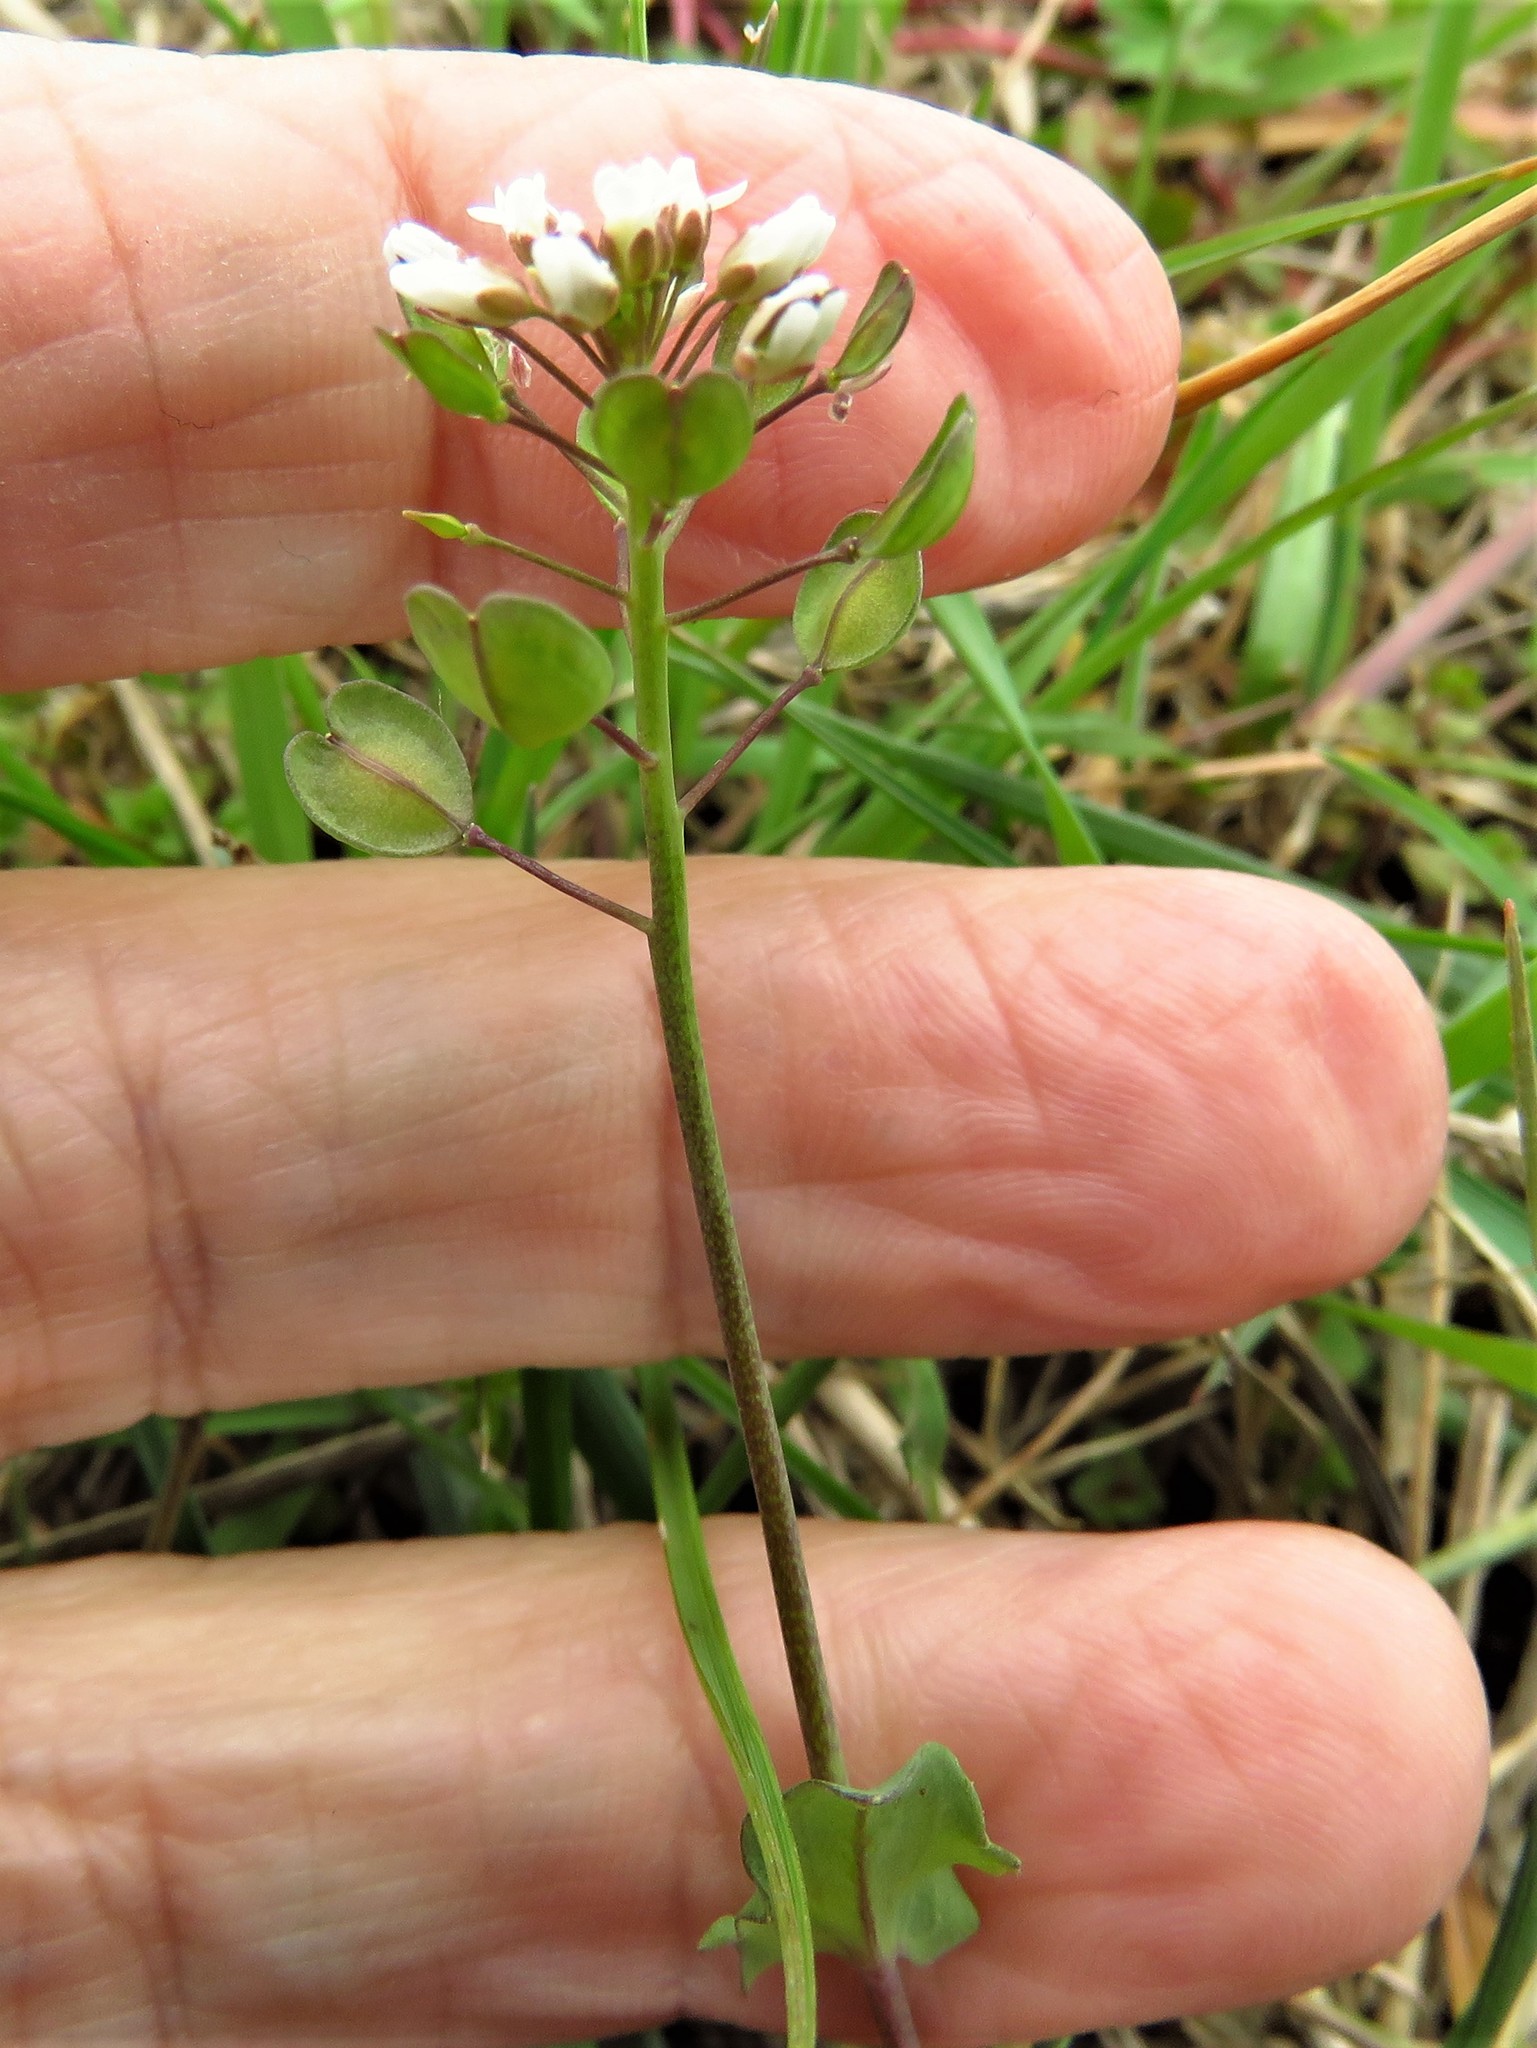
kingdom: Plantae
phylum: Tracheophyta
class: Magnoliopsida
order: Brassicales
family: Brassicaceae
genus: Noccaea
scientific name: Noccaea perfoliata
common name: Perfoliate pennycress
